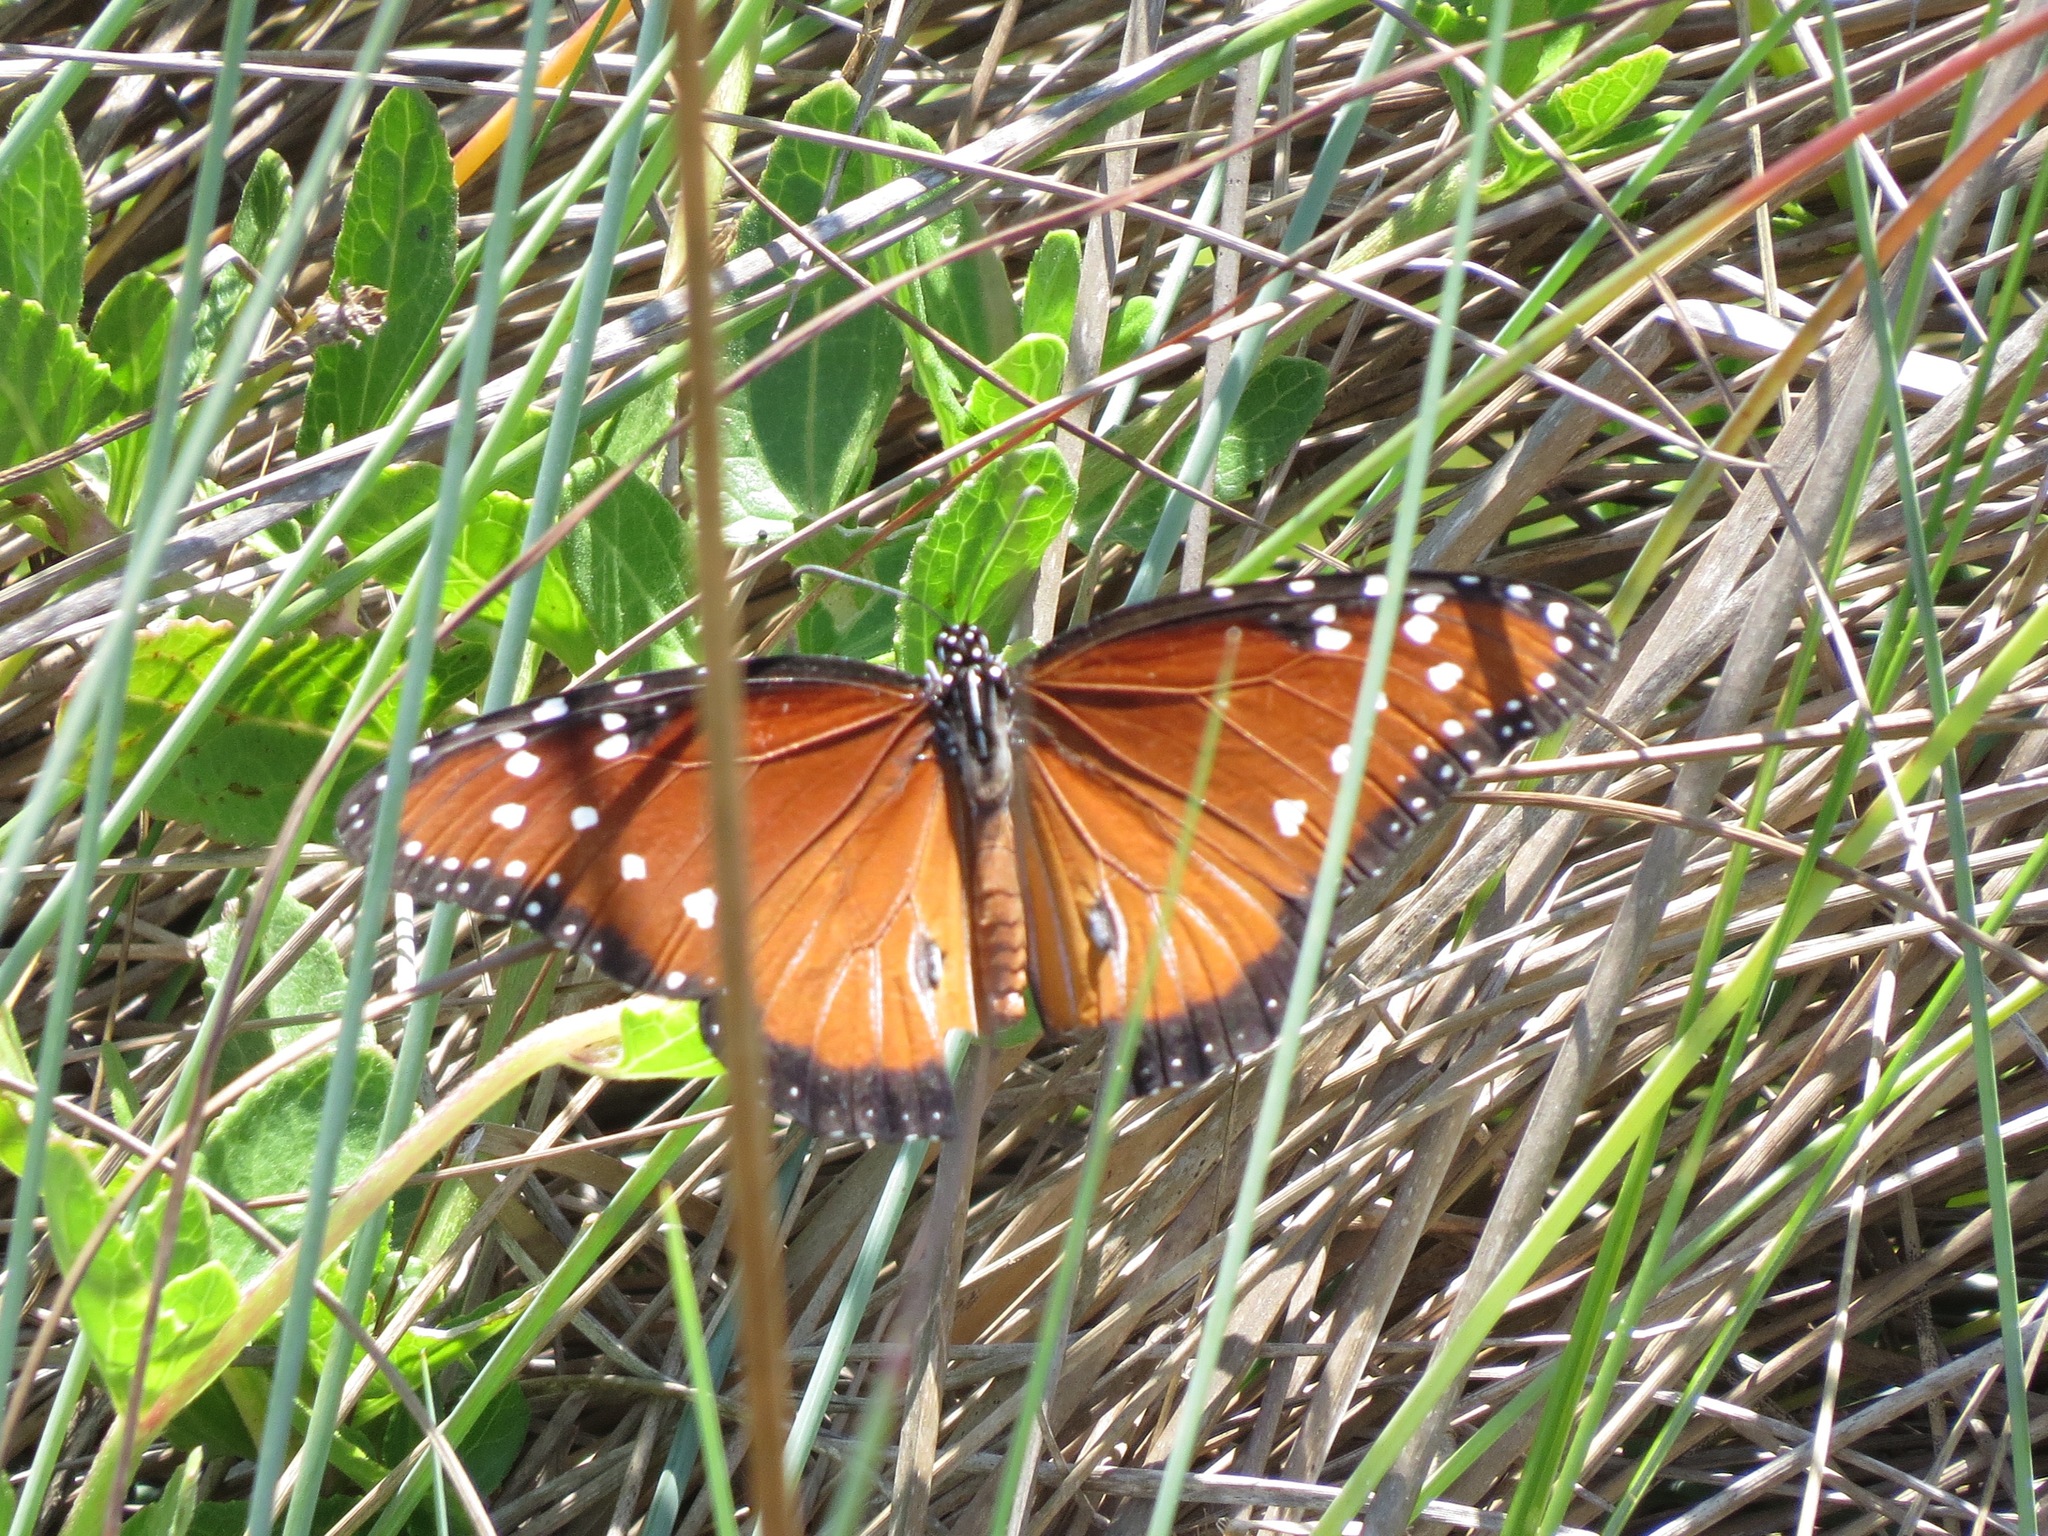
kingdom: Animalia
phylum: Arthropoda
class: Insecta
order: Lepidoptera
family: Nymphalidae
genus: Danaus
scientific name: Danaus gilippus
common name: Queen
